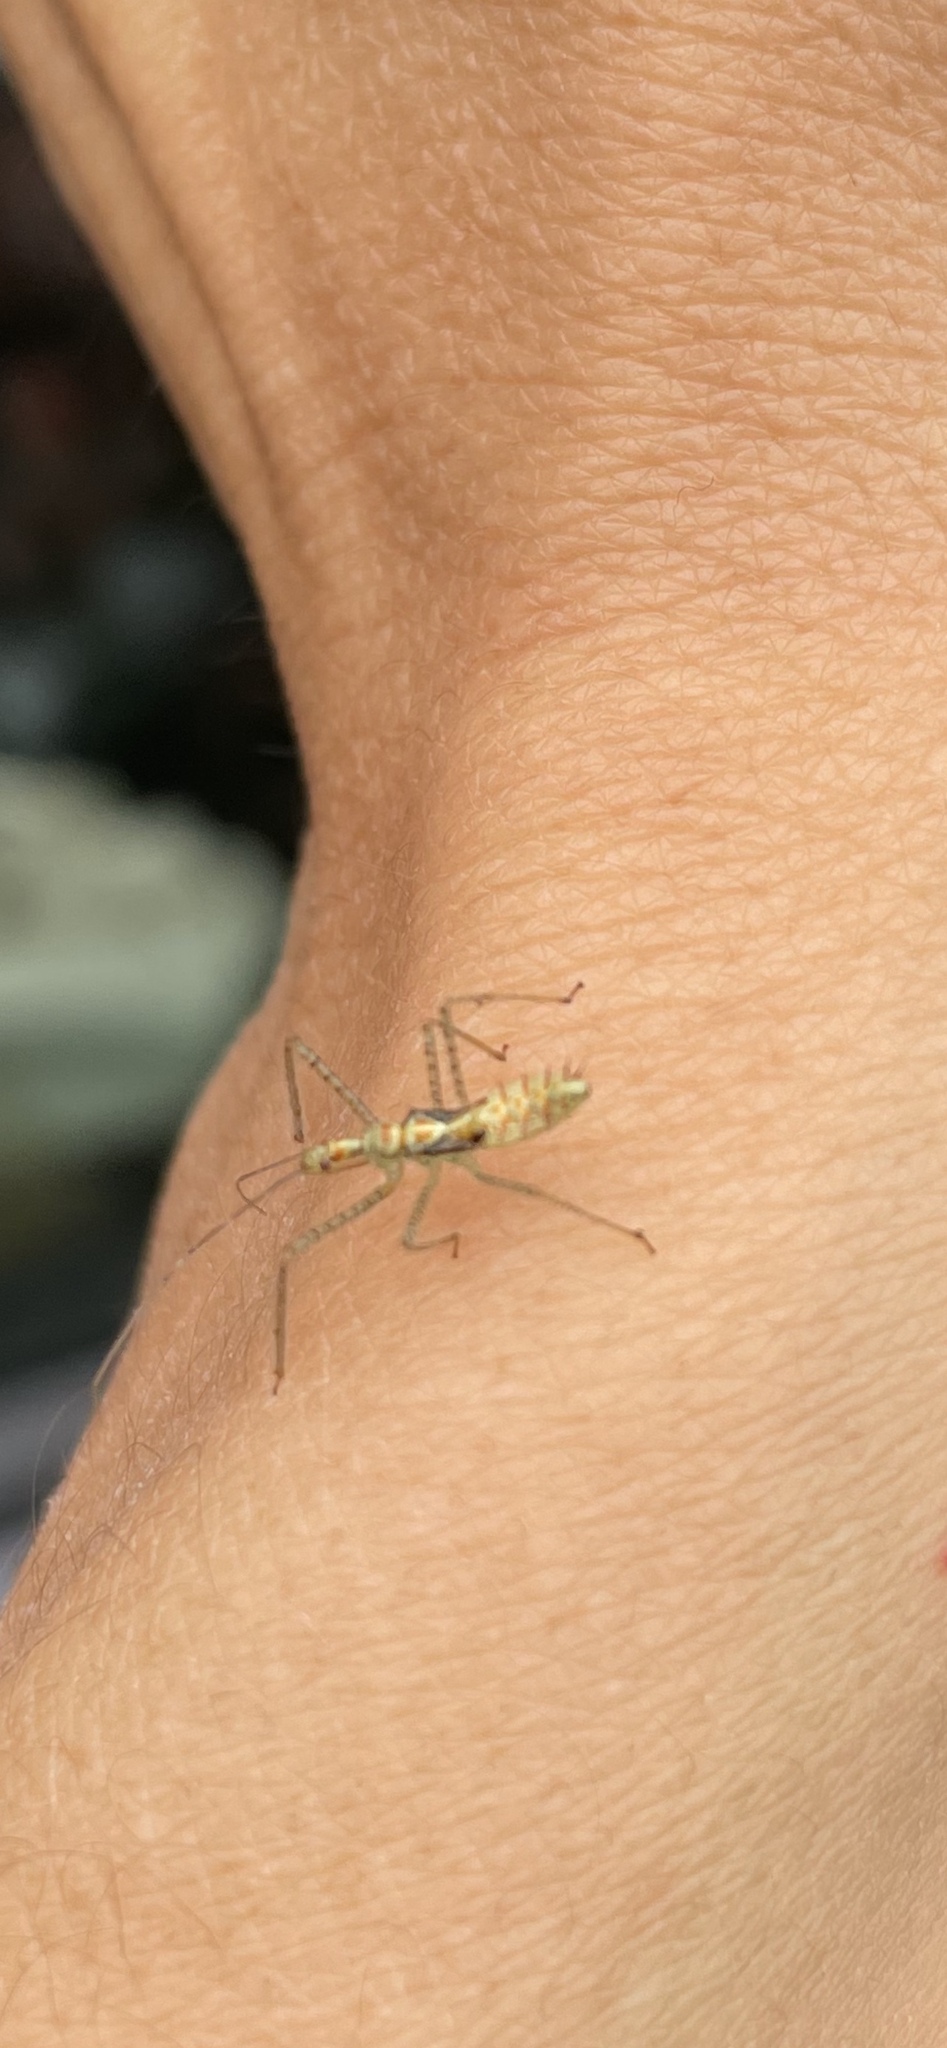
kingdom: Animalia
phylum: Arthropoda
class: Insecta
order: Hemiptera
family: Reduviidae
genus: Zelus
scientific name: Zelus renardii
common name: Assassin bug
